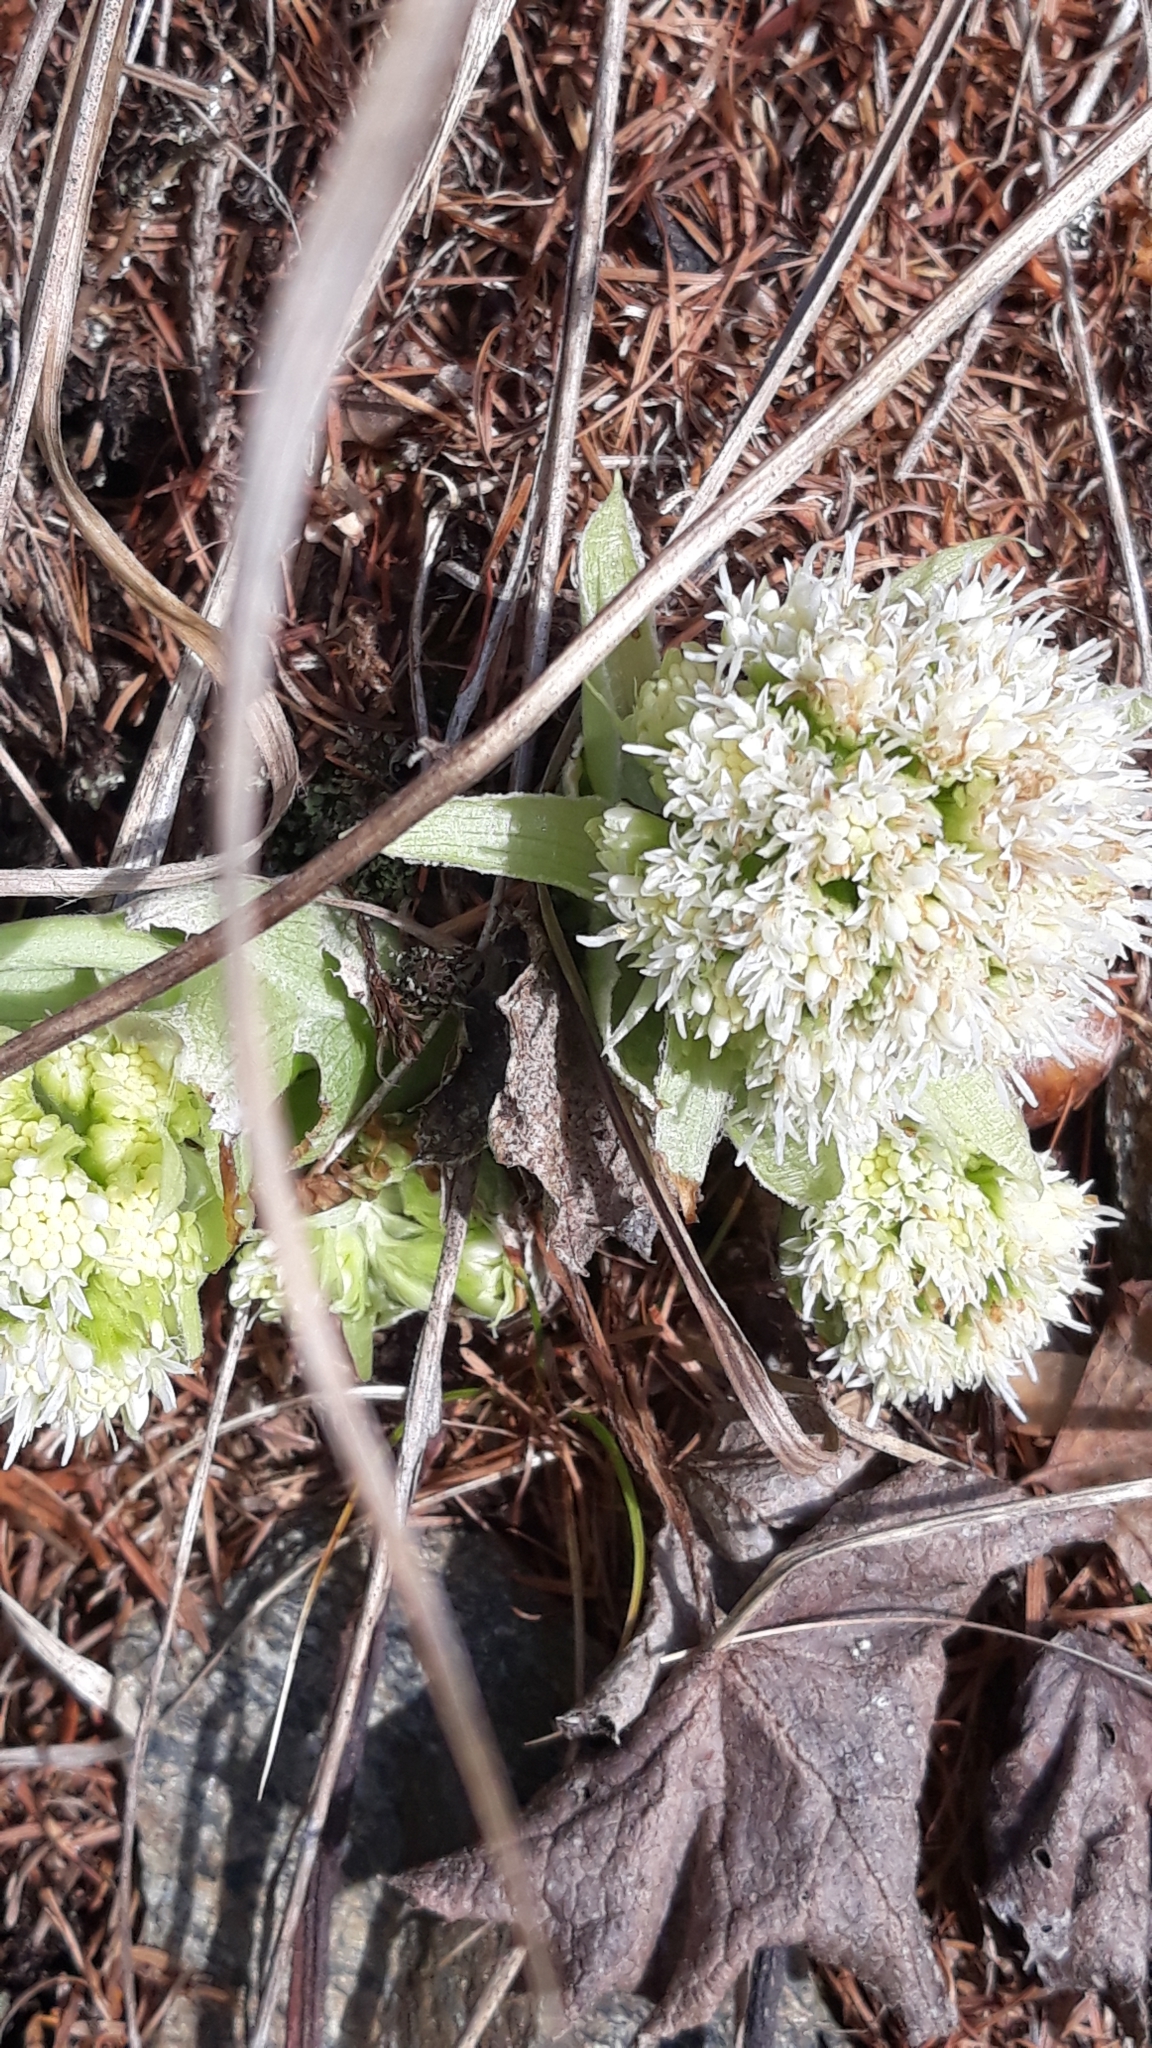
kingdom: Plantae
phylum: Tracheophyta
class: Magnoliopsida
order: Asterales
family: Asteraceae
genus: Petasites
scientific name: Petasites albus
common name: White butterbur
